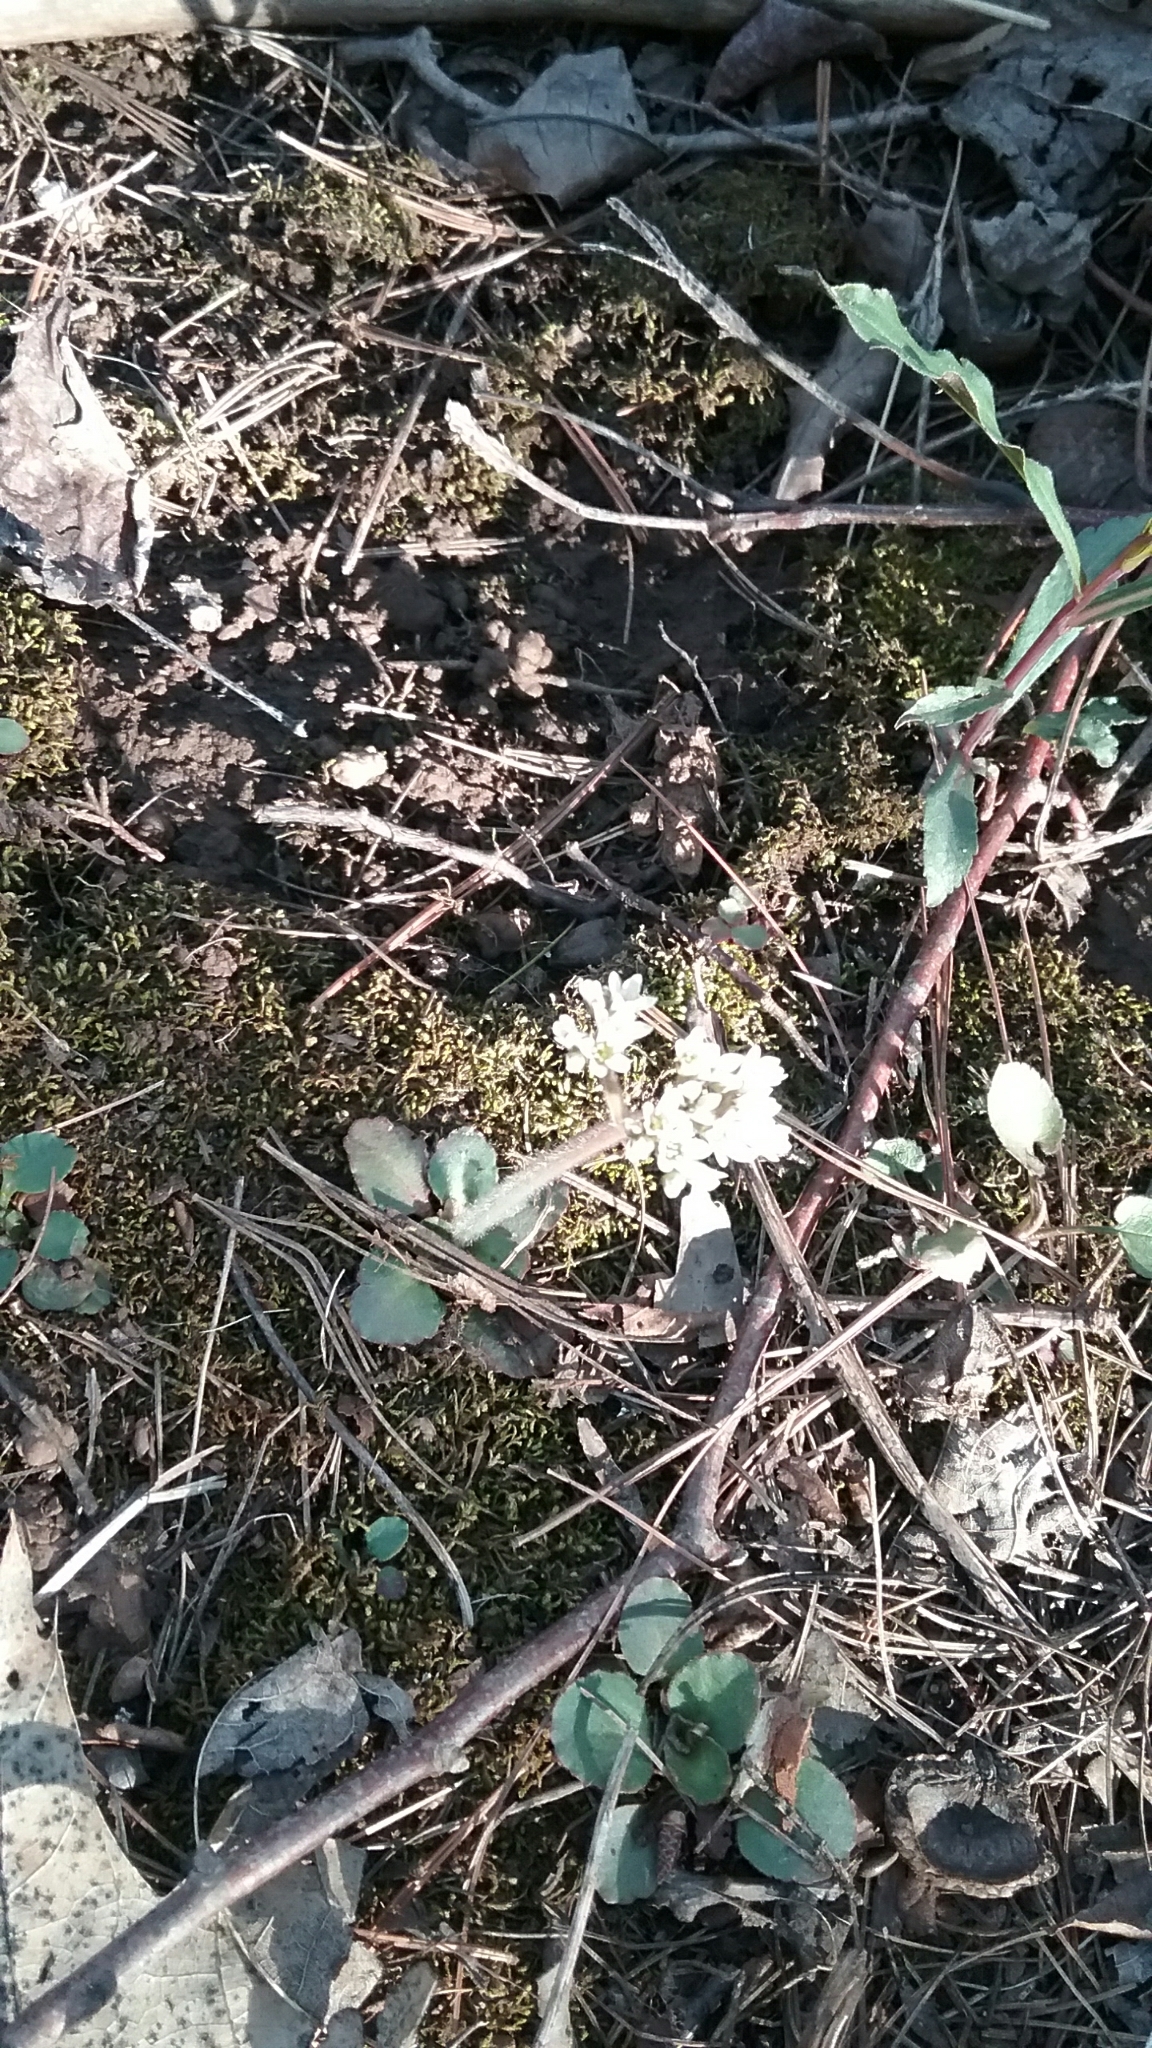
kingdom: Plantae
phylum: Tracheophyta
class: Magnoliopsida
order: Saxifragales
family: Saxifragaceae
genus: Micranthes
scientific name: Micranthes virginiensis
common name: Early saxifrage
